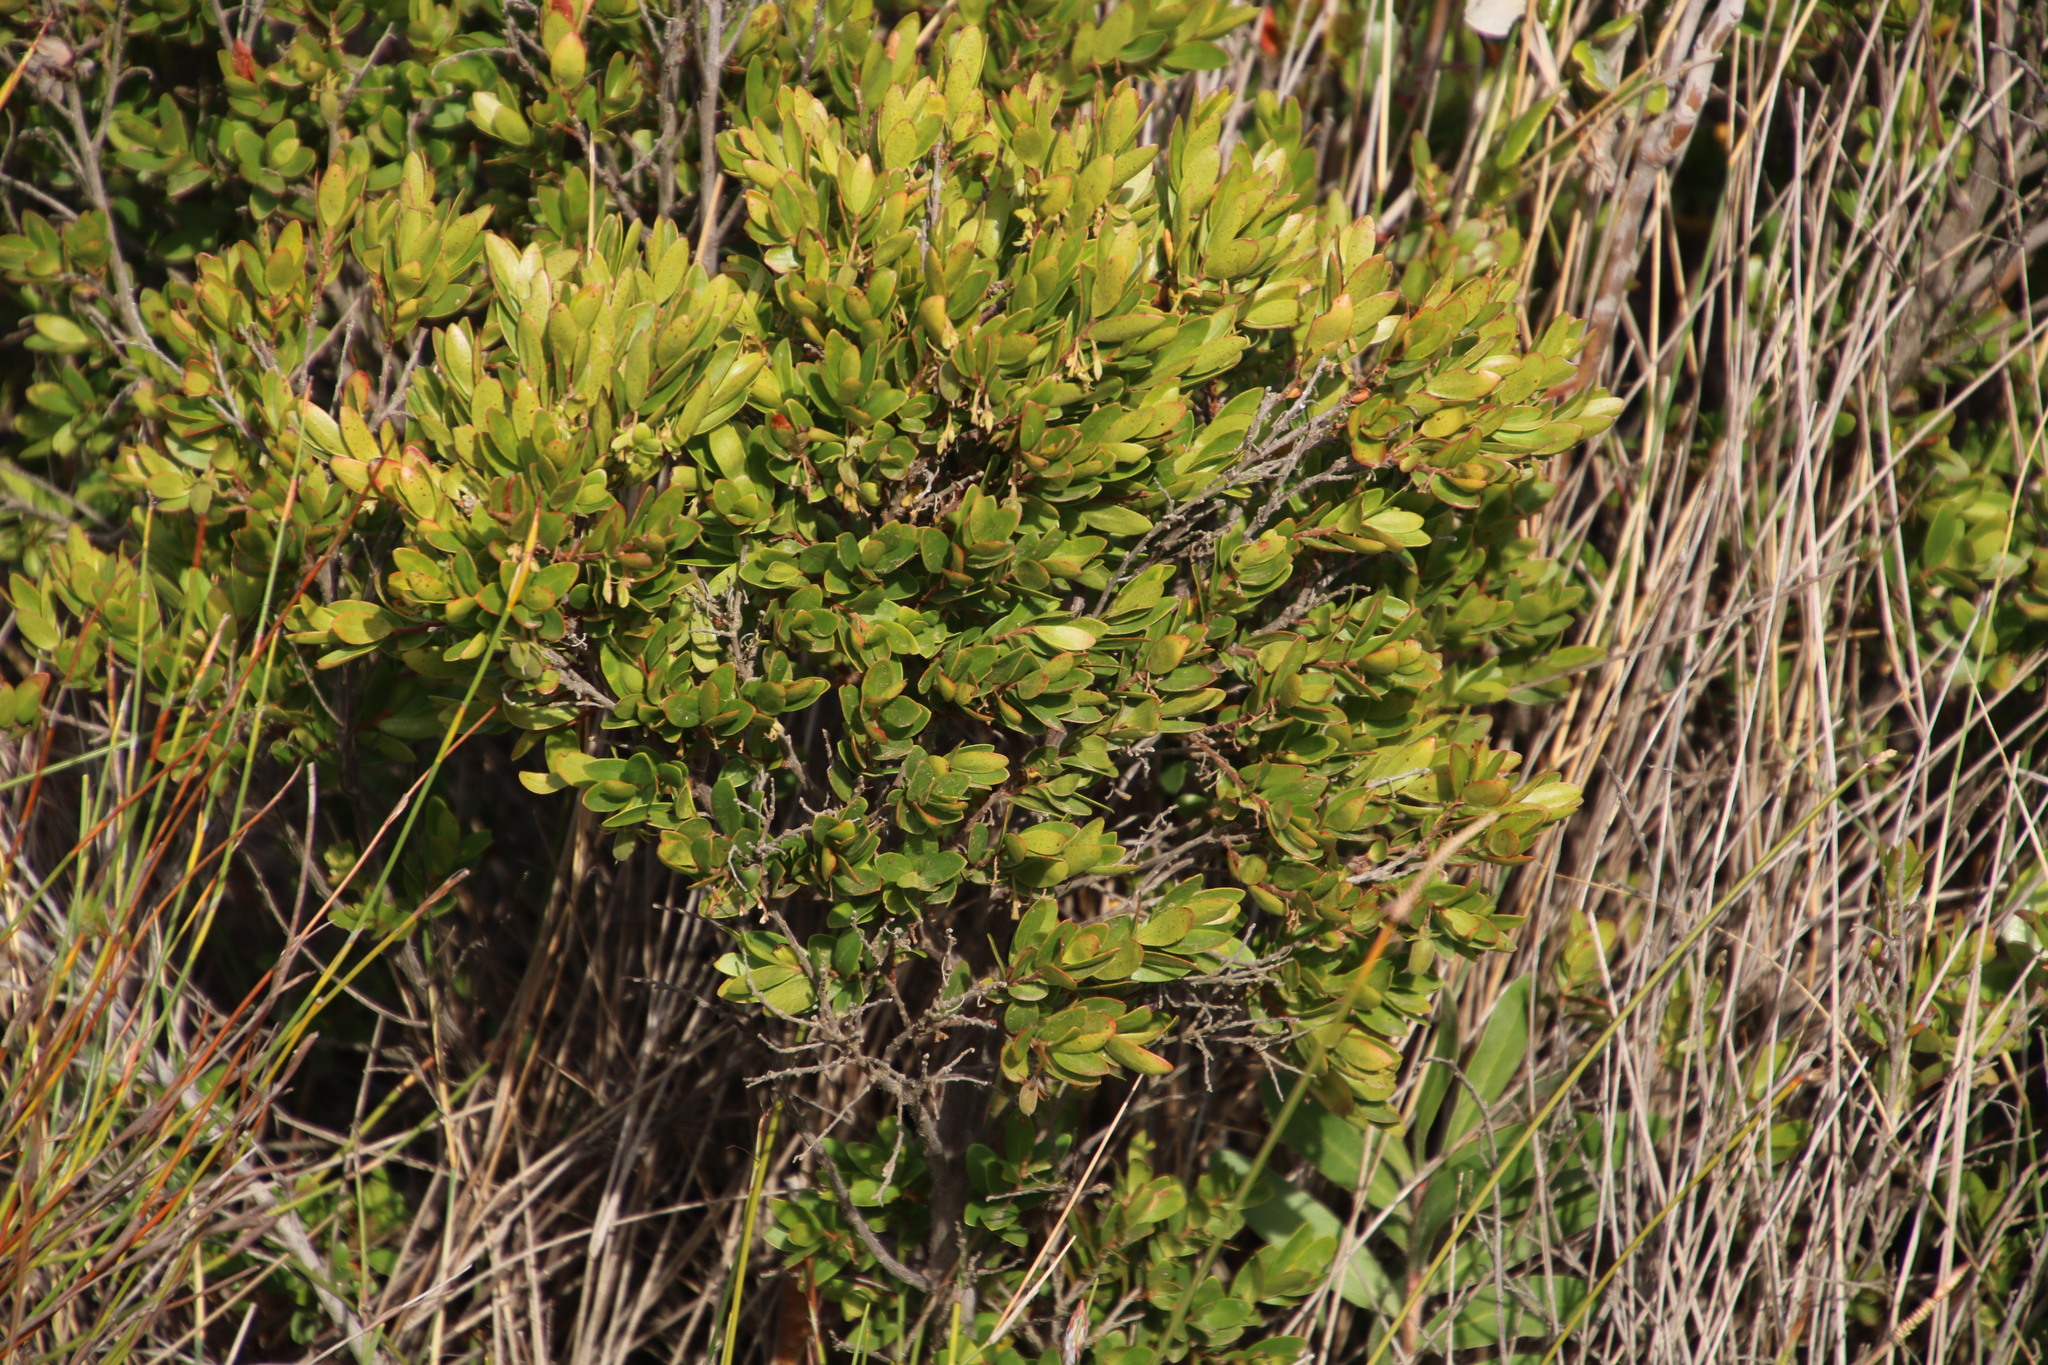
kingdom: Plantae
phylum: Tracheophyta
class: Magnoliopsida
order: Ericales
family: Ebenaceae
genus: Diospyros
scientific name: Diospyros glabra
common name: Fynbos star apple
